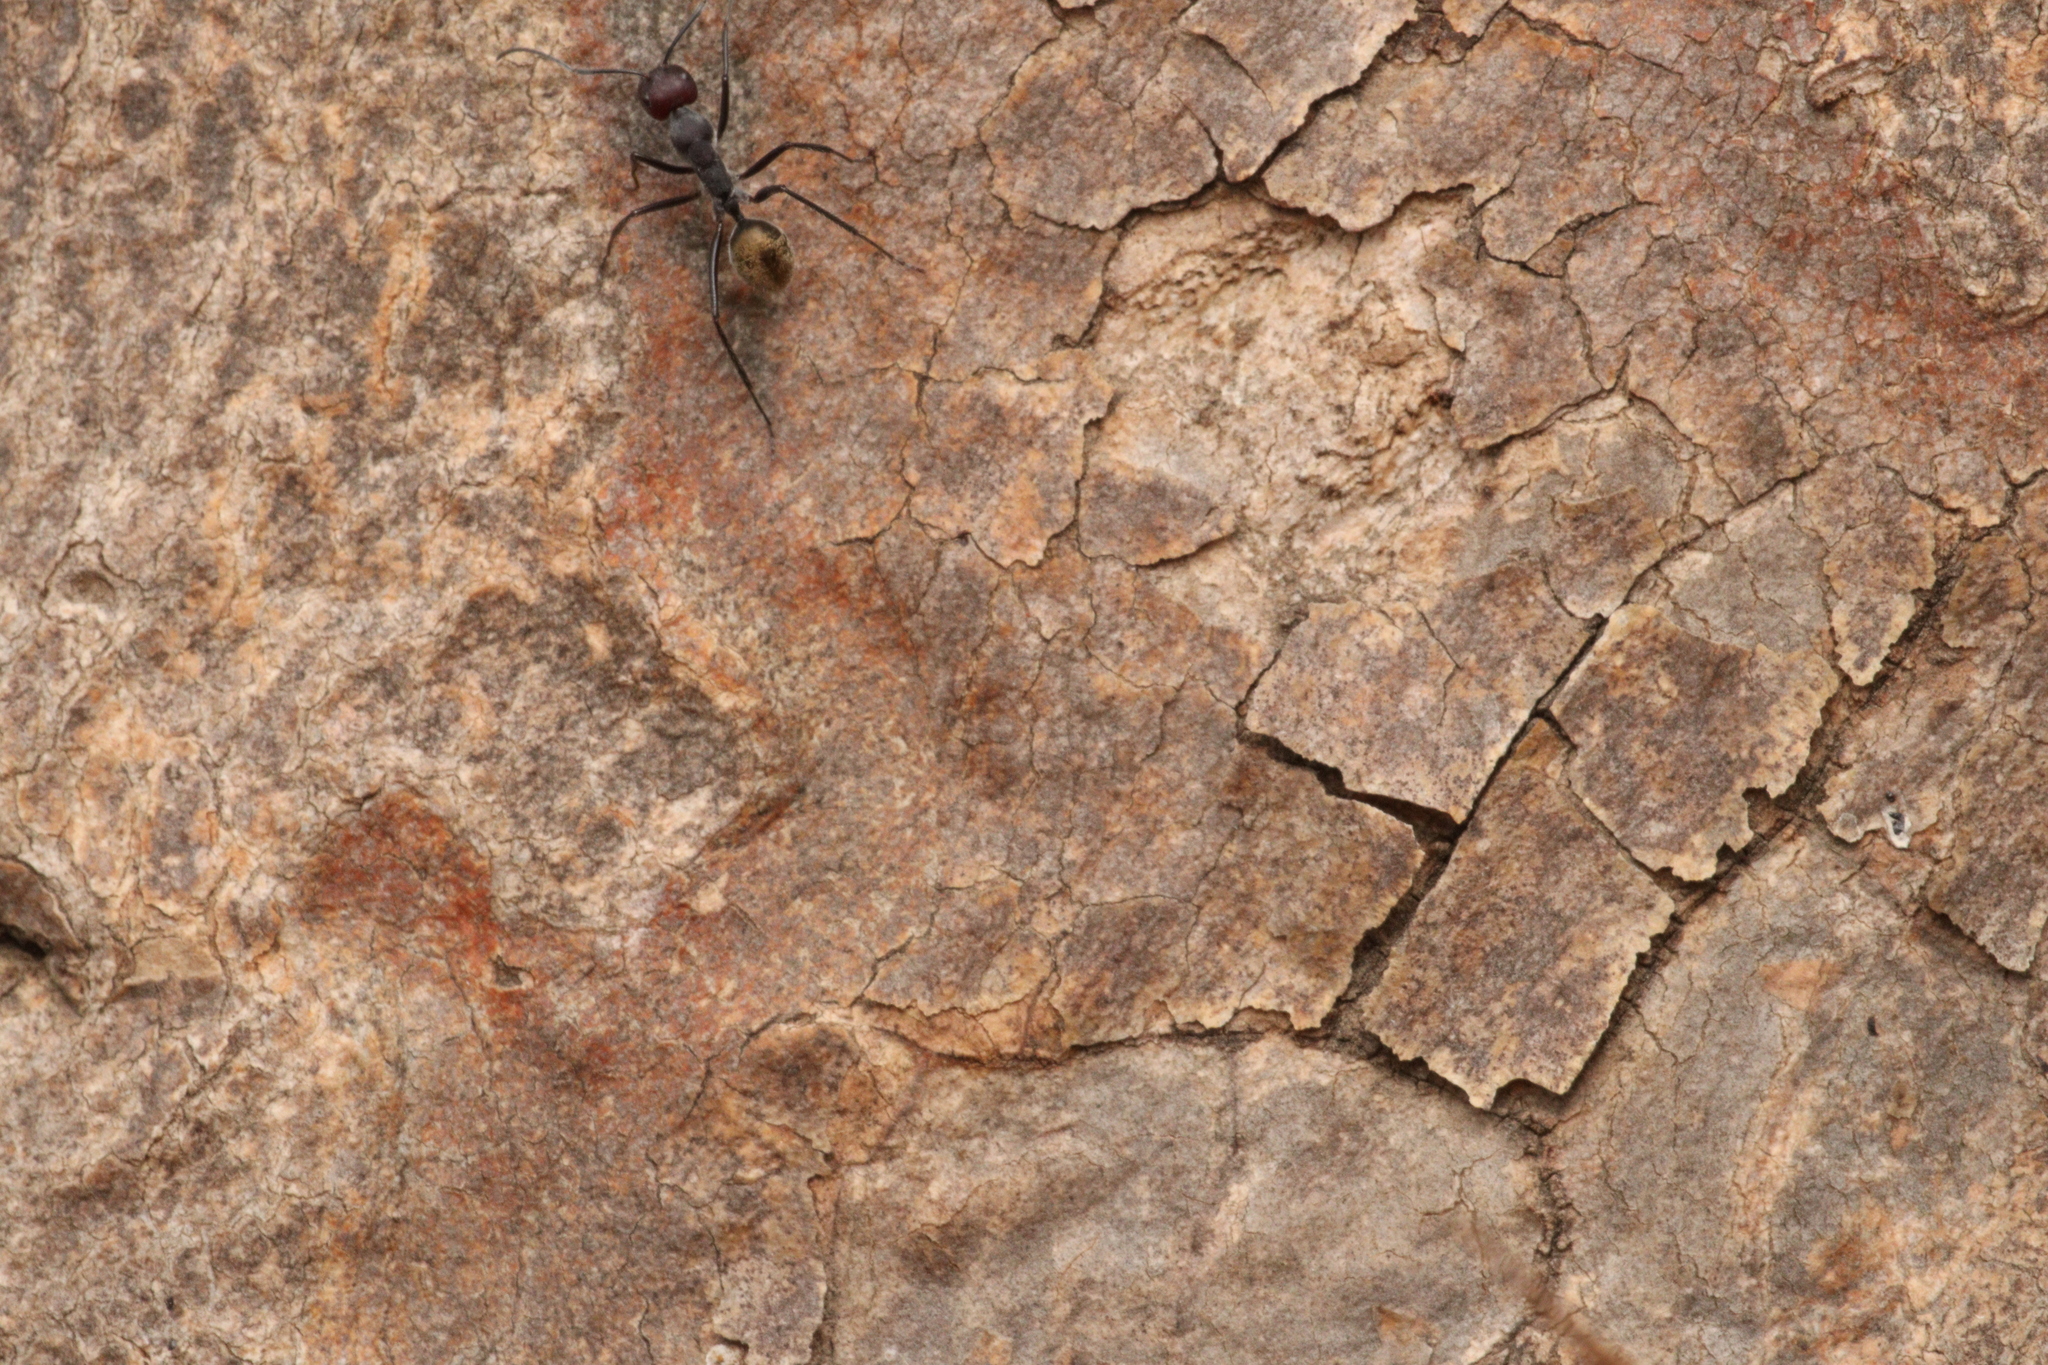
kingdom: Animalia
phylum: Arthropoda
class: Insecta
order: Hymenoptera
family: Formicidae
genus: Camponotus
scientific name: Camponotus suffusus
